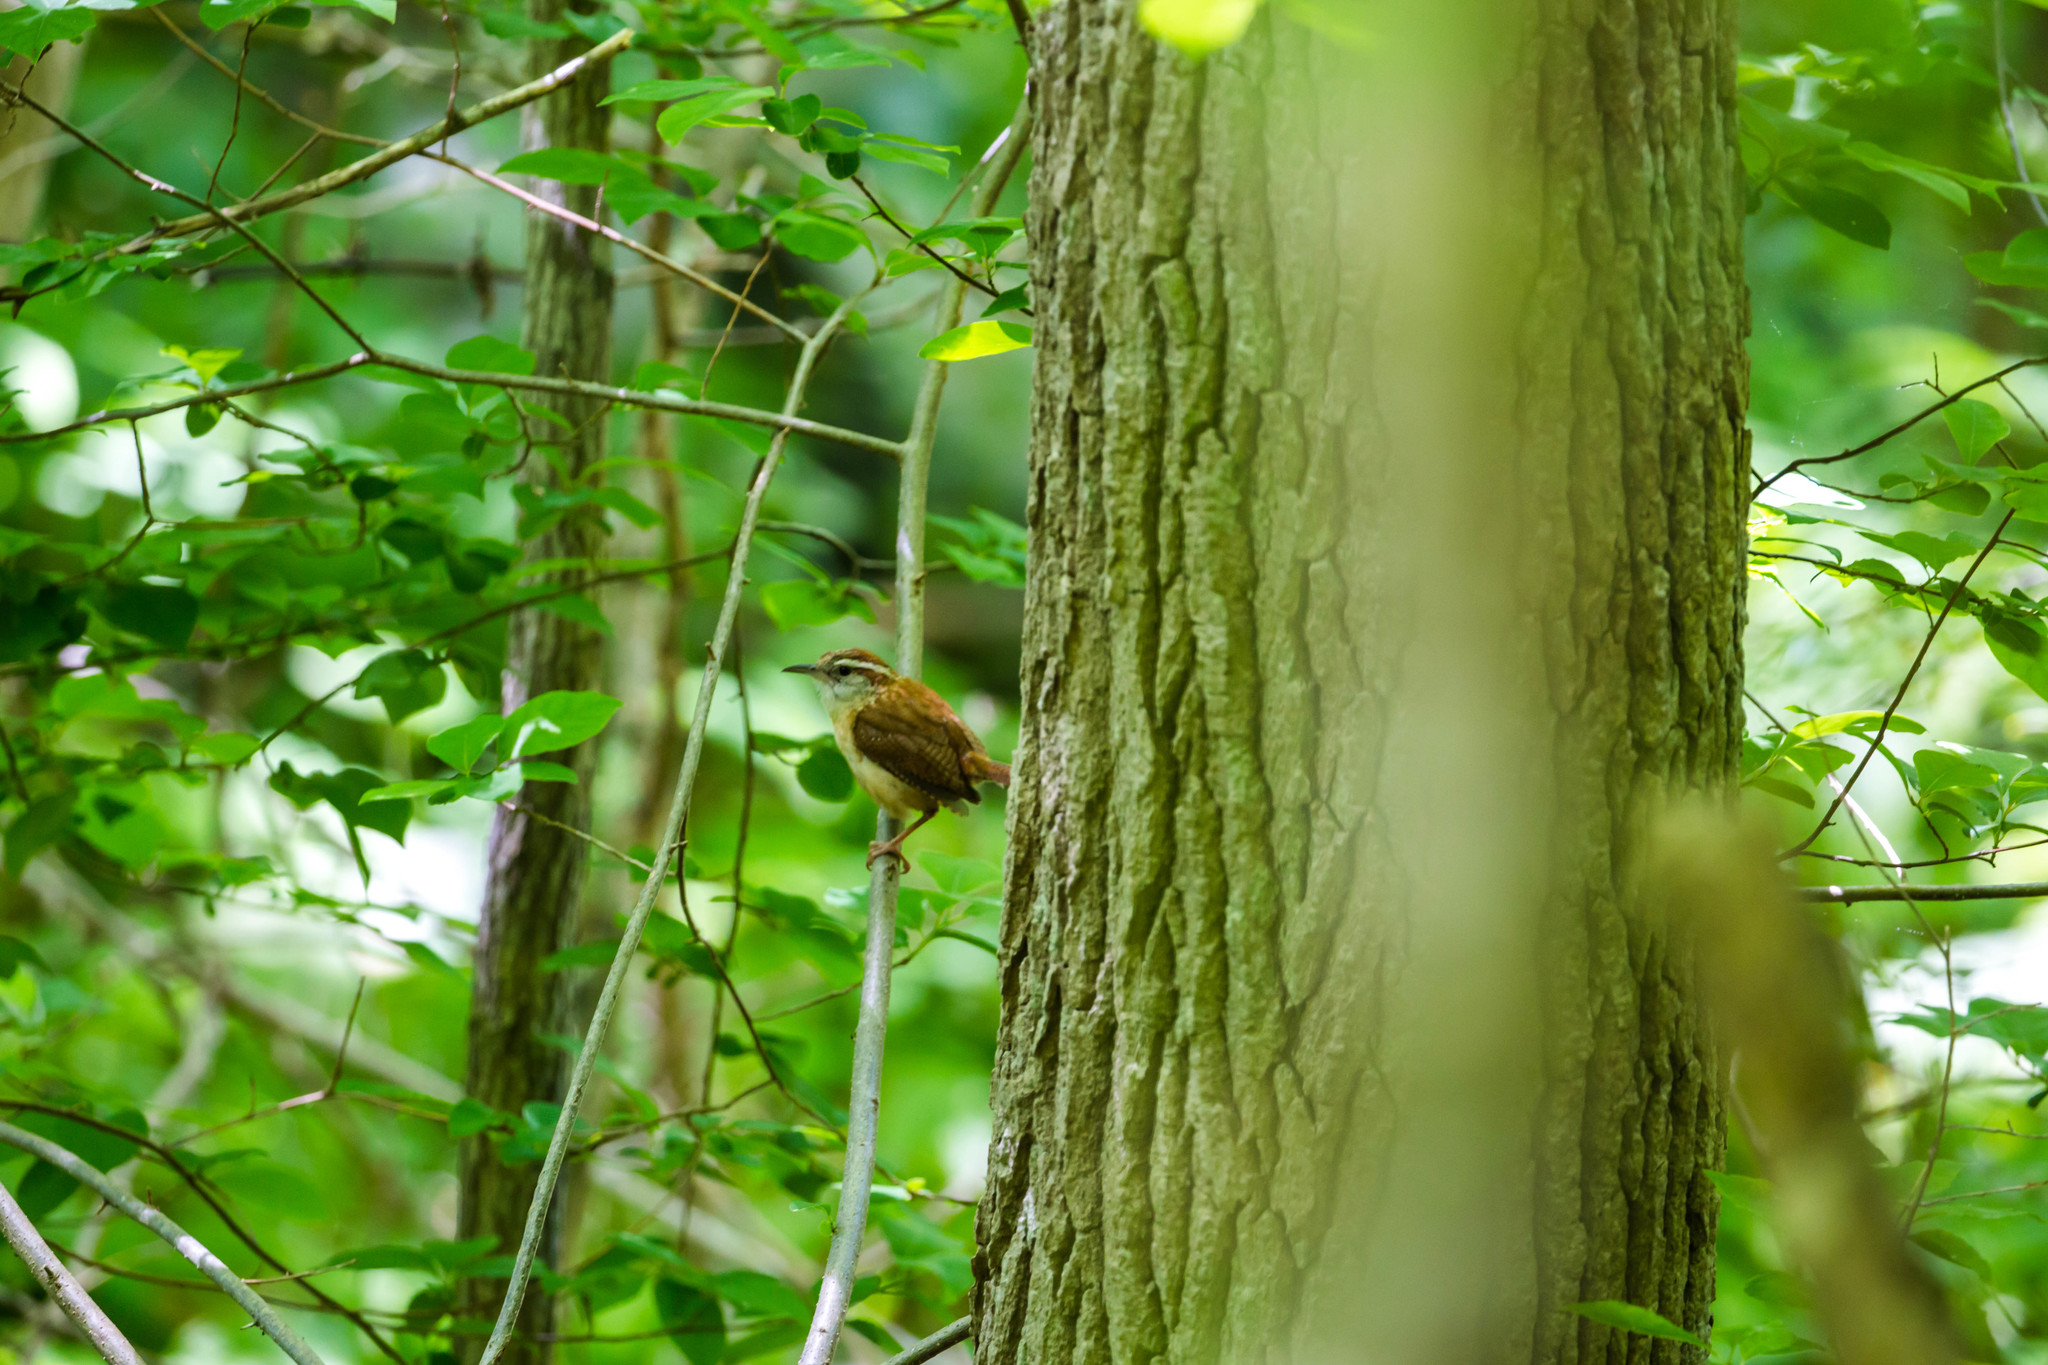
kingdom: Animalia
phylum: Chordata
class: Aves
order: Passeriformes
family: Troglodytidae
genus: Thryothorus
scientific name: Thryothorus ludovicianus
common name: Carolina wren
